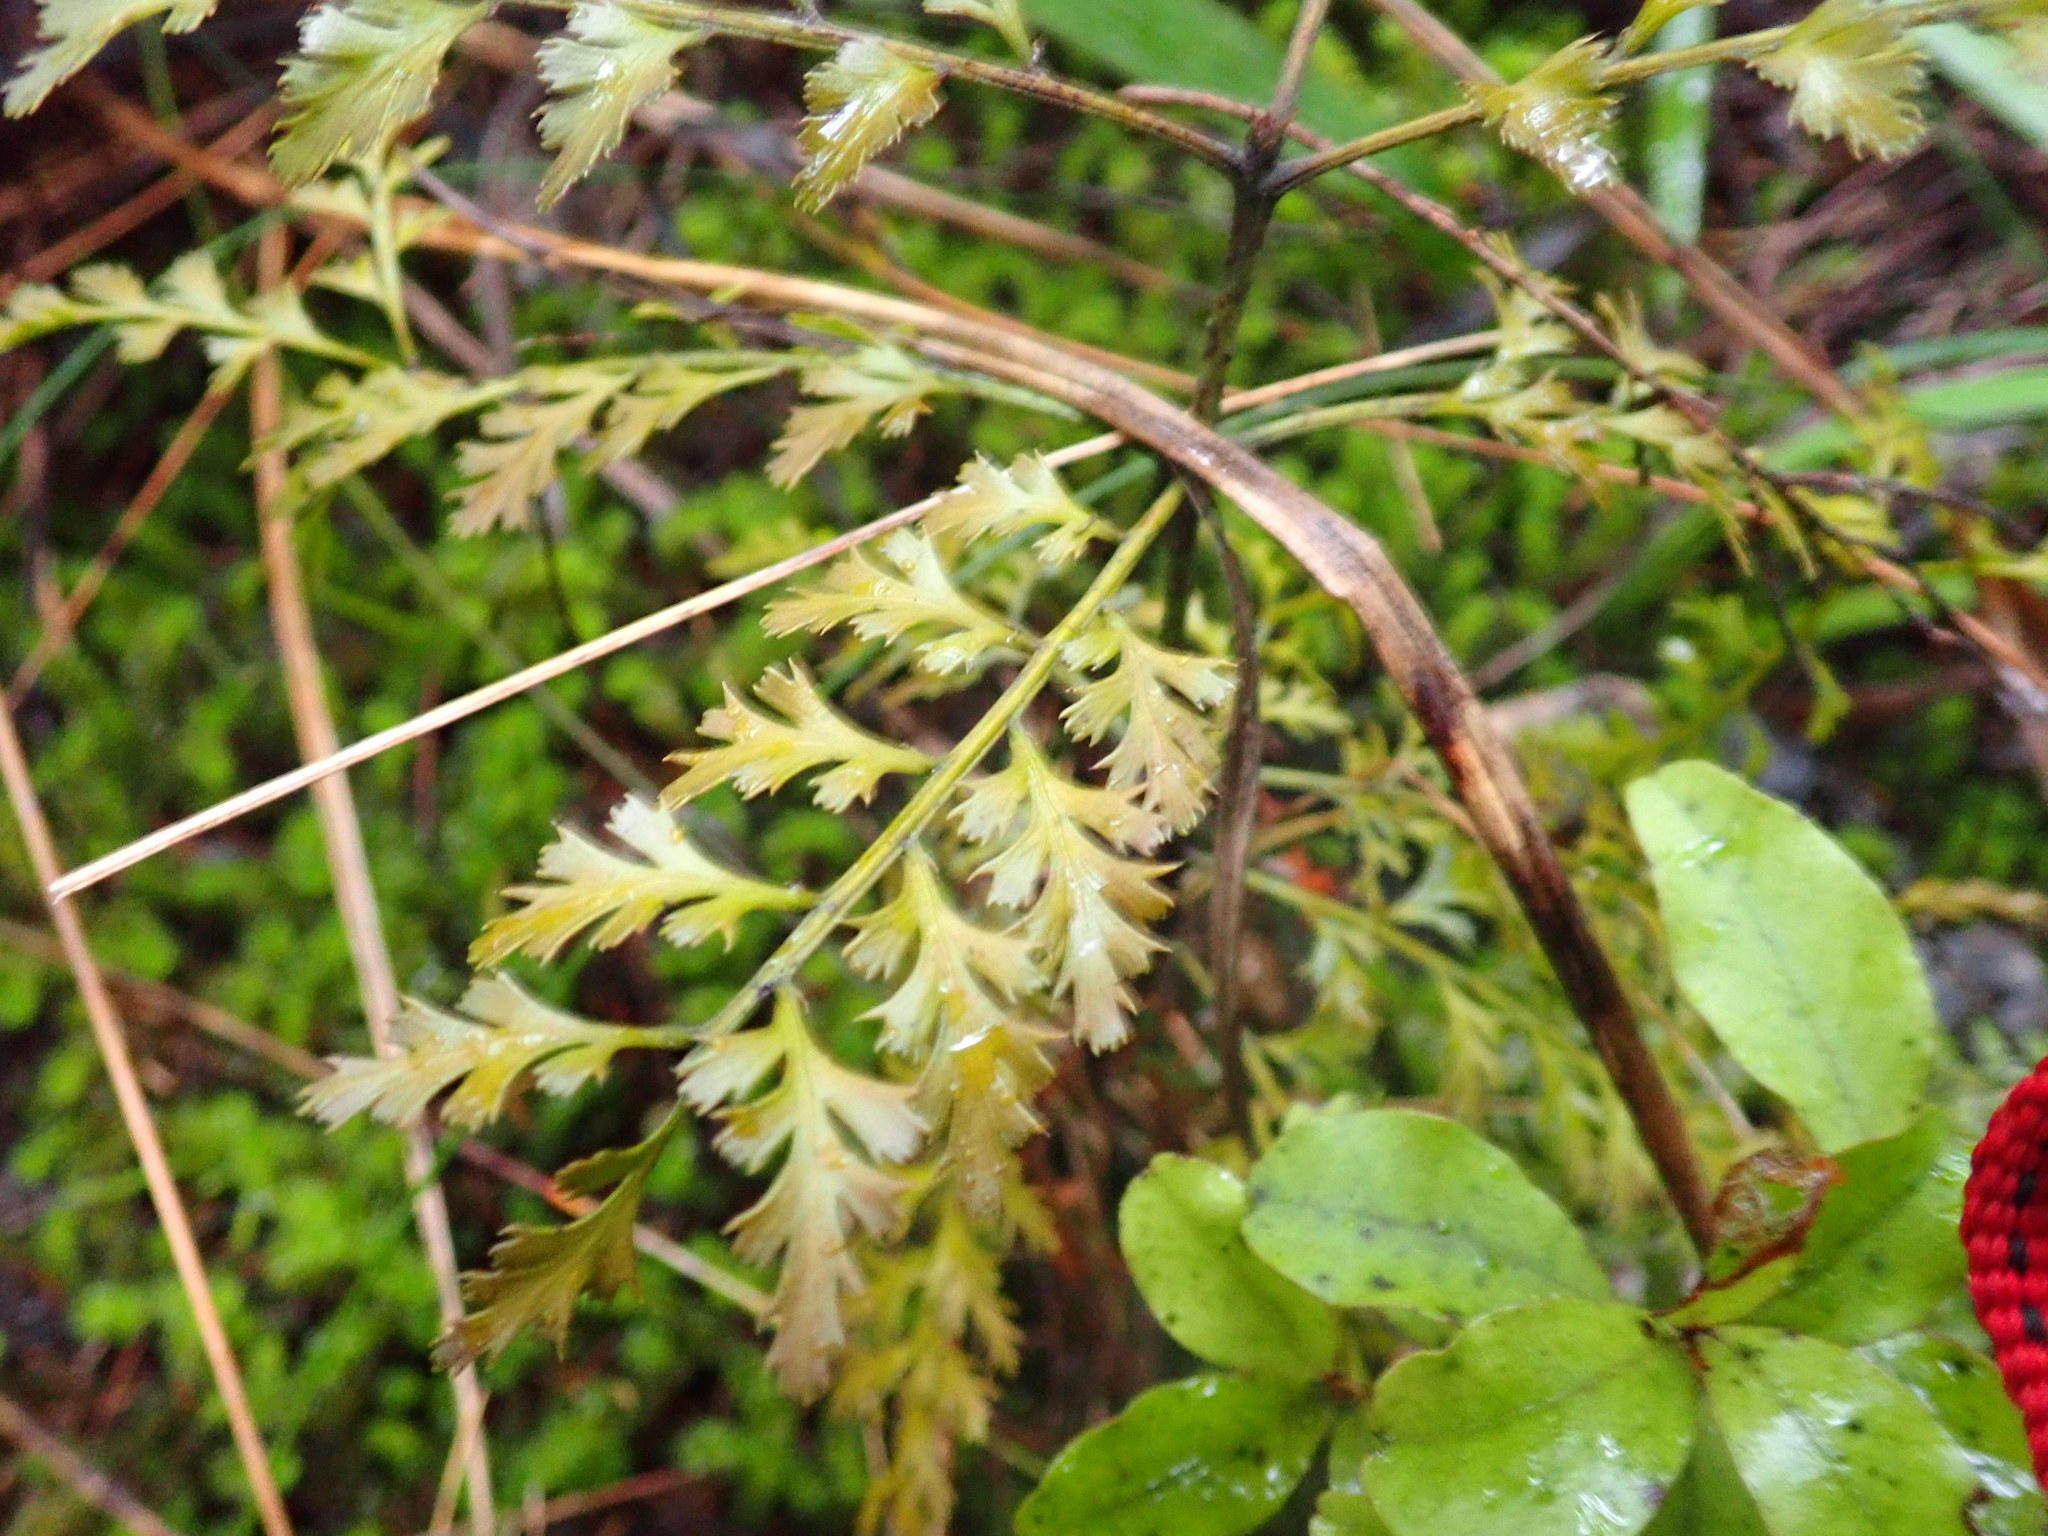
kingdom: Plantae
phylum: Tracheophyta
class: Pinopsida
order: Pinales
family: Phyllocladaceae
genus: Phyllocladus
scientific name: Phyllocladus trichomanoides
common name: Celery pine
